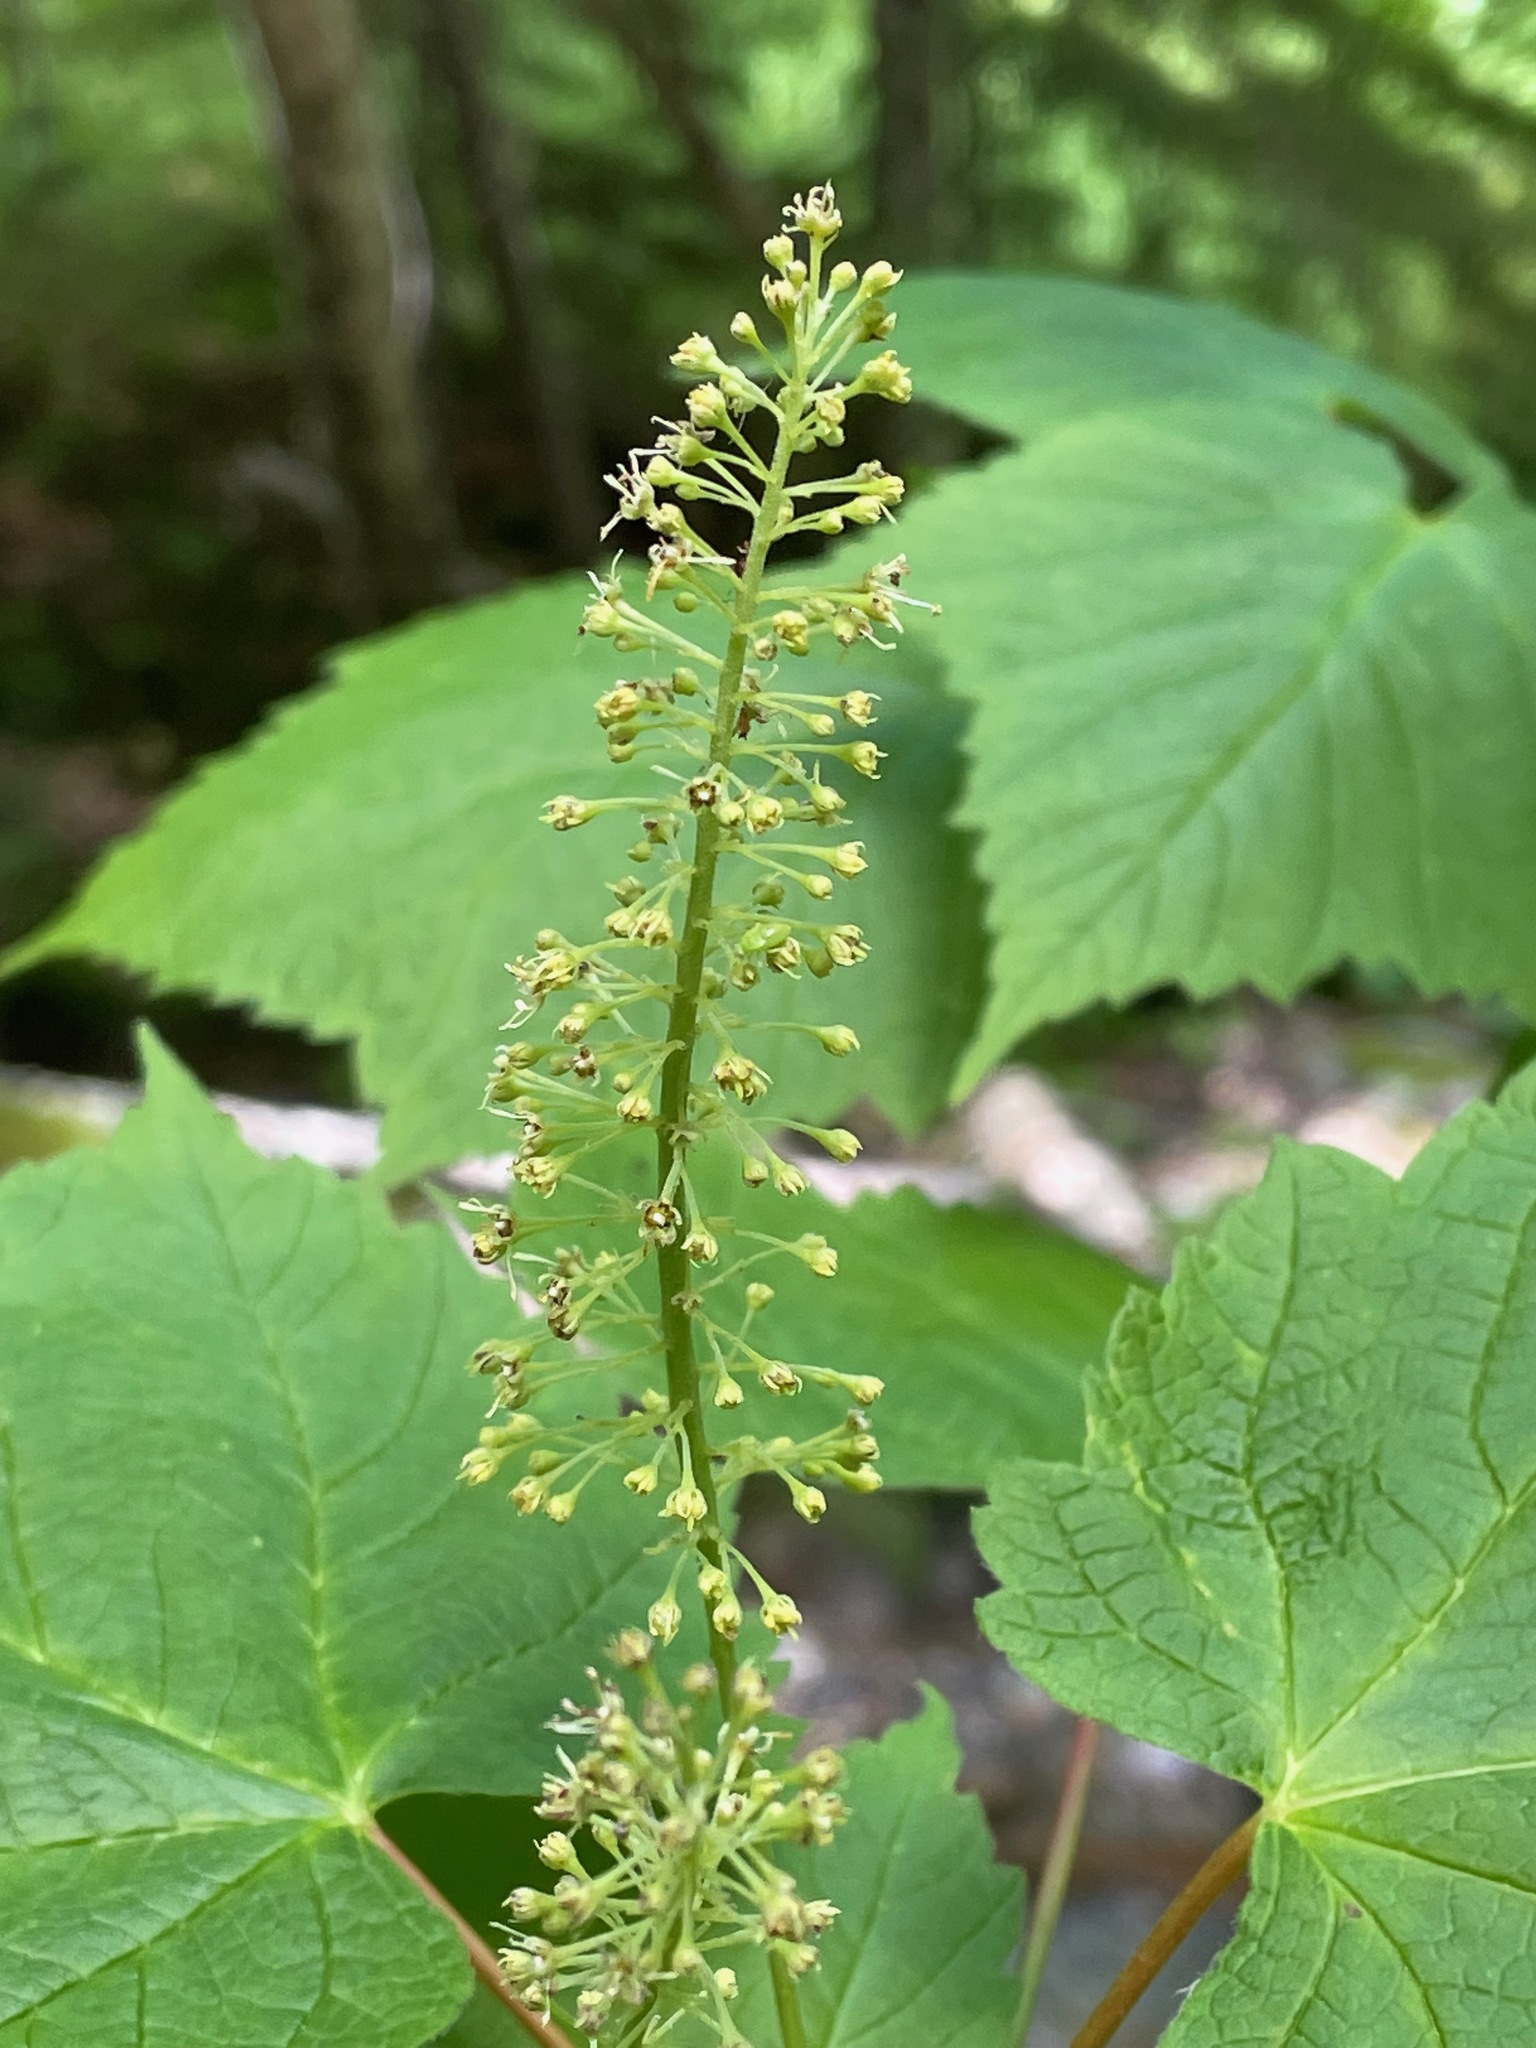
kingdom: Plantae
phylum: Tracheophyta
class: Magnoliopsida
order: Sapindales
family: Sapindaceae
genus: Acer
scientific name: Acer spicatum
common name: Mountain maple
